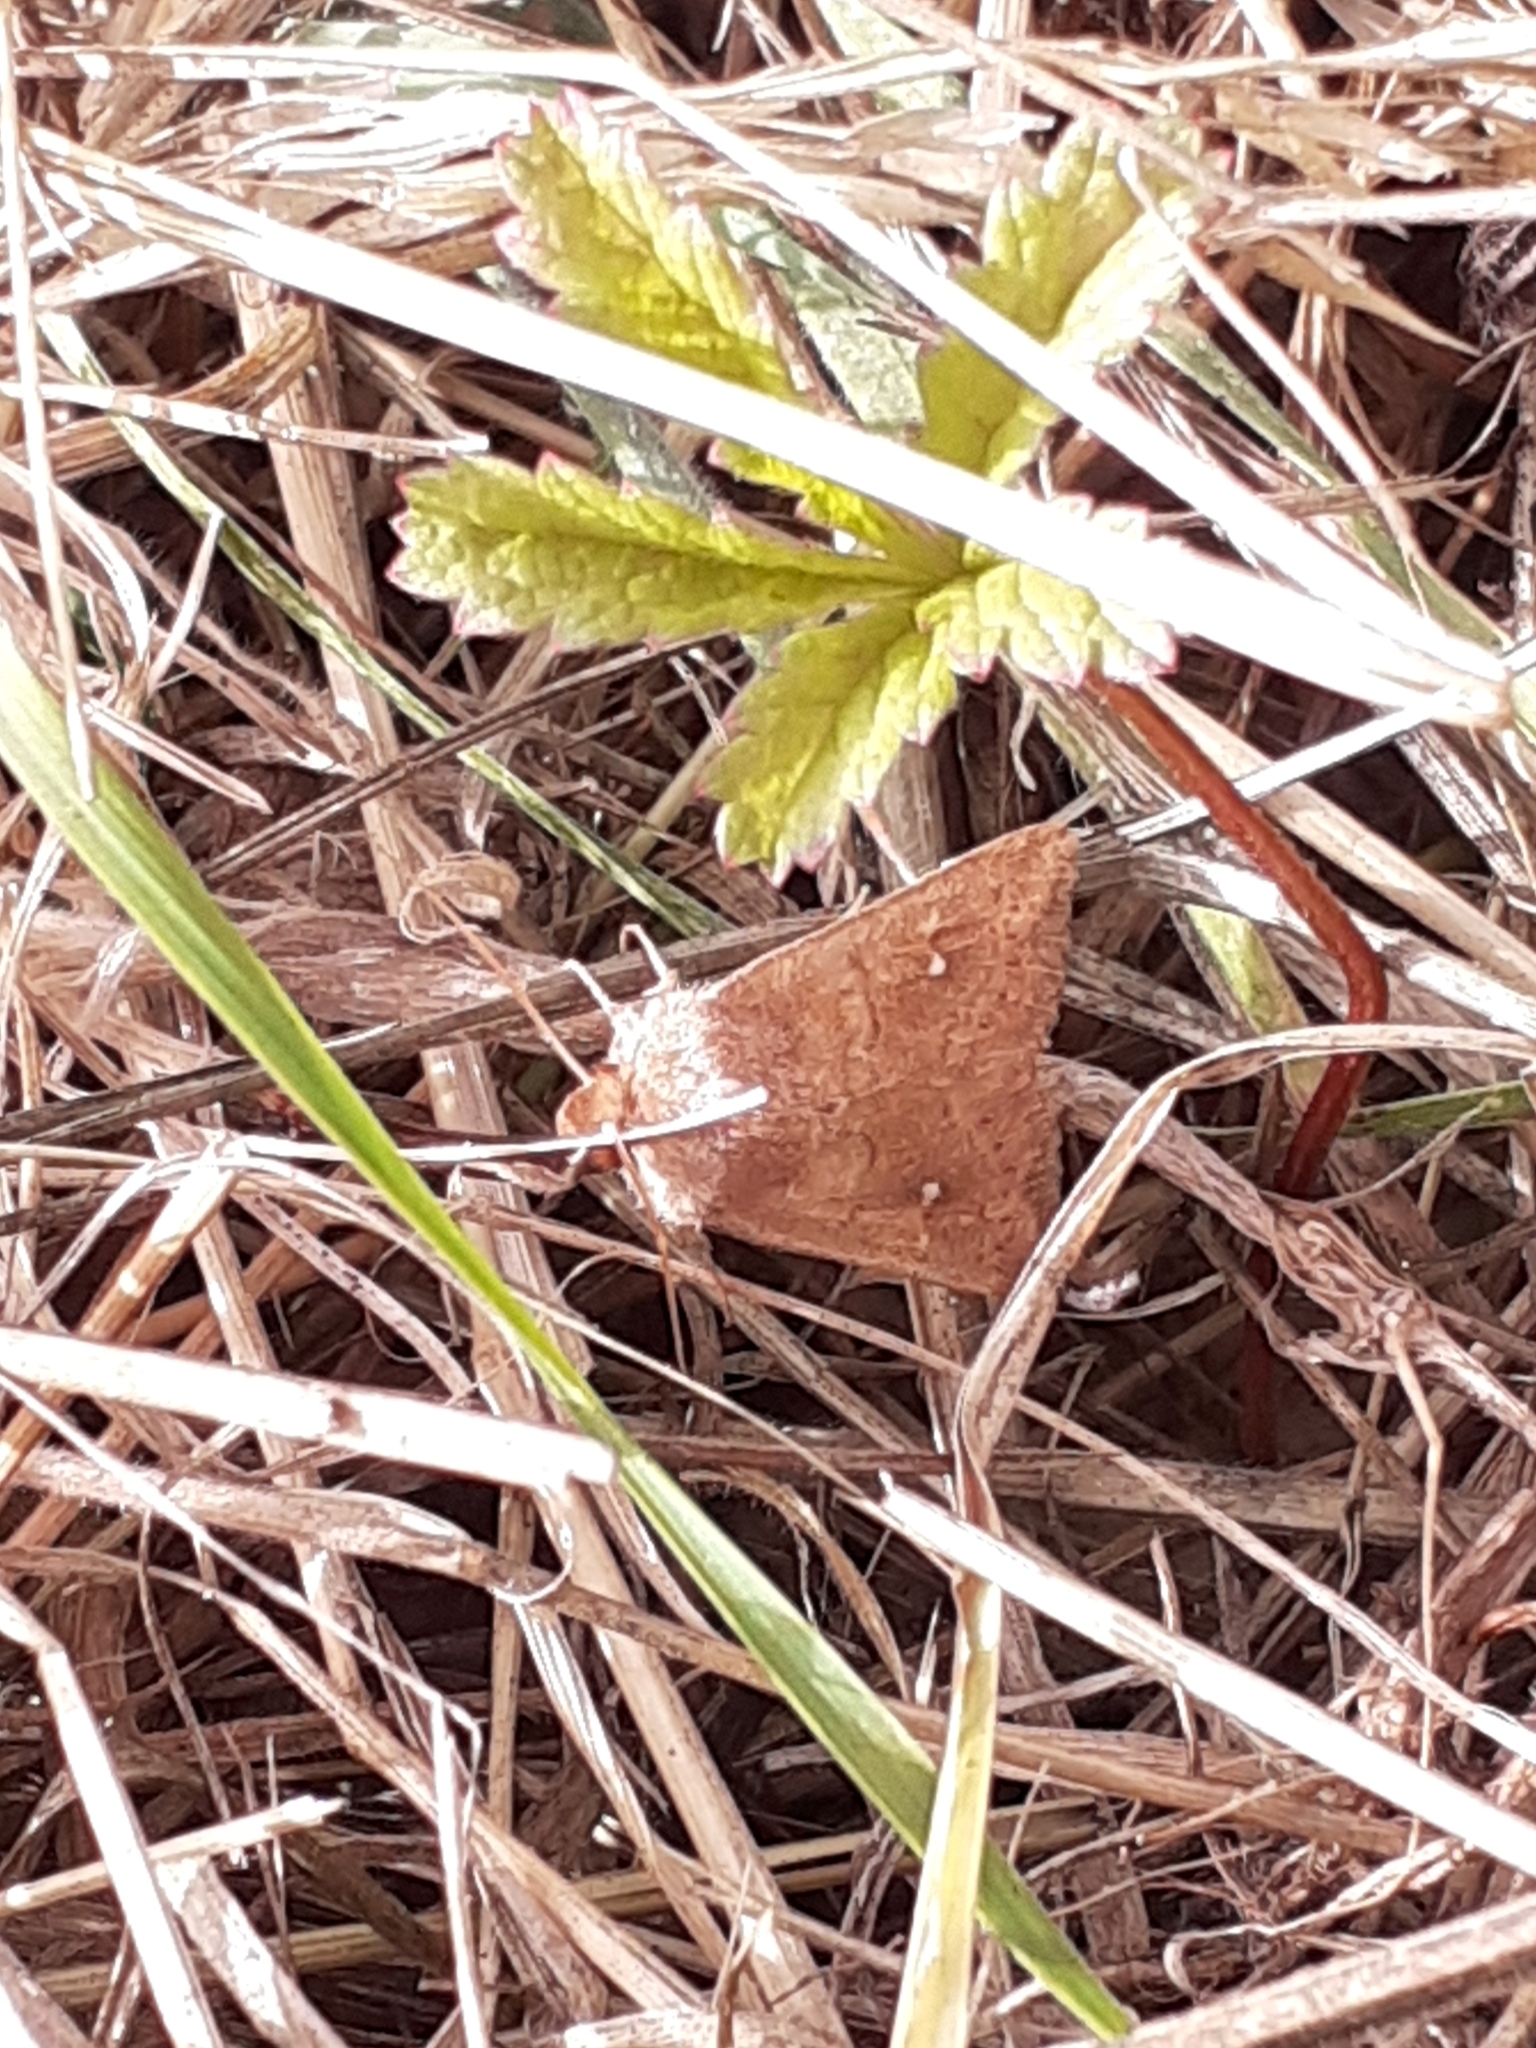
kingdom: Animalia
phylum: Arthropoda
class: Insecta
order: Lepidoptera
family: Noctuidae
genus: Mythimna
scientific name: Mythimna albipuncta
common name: White-point
